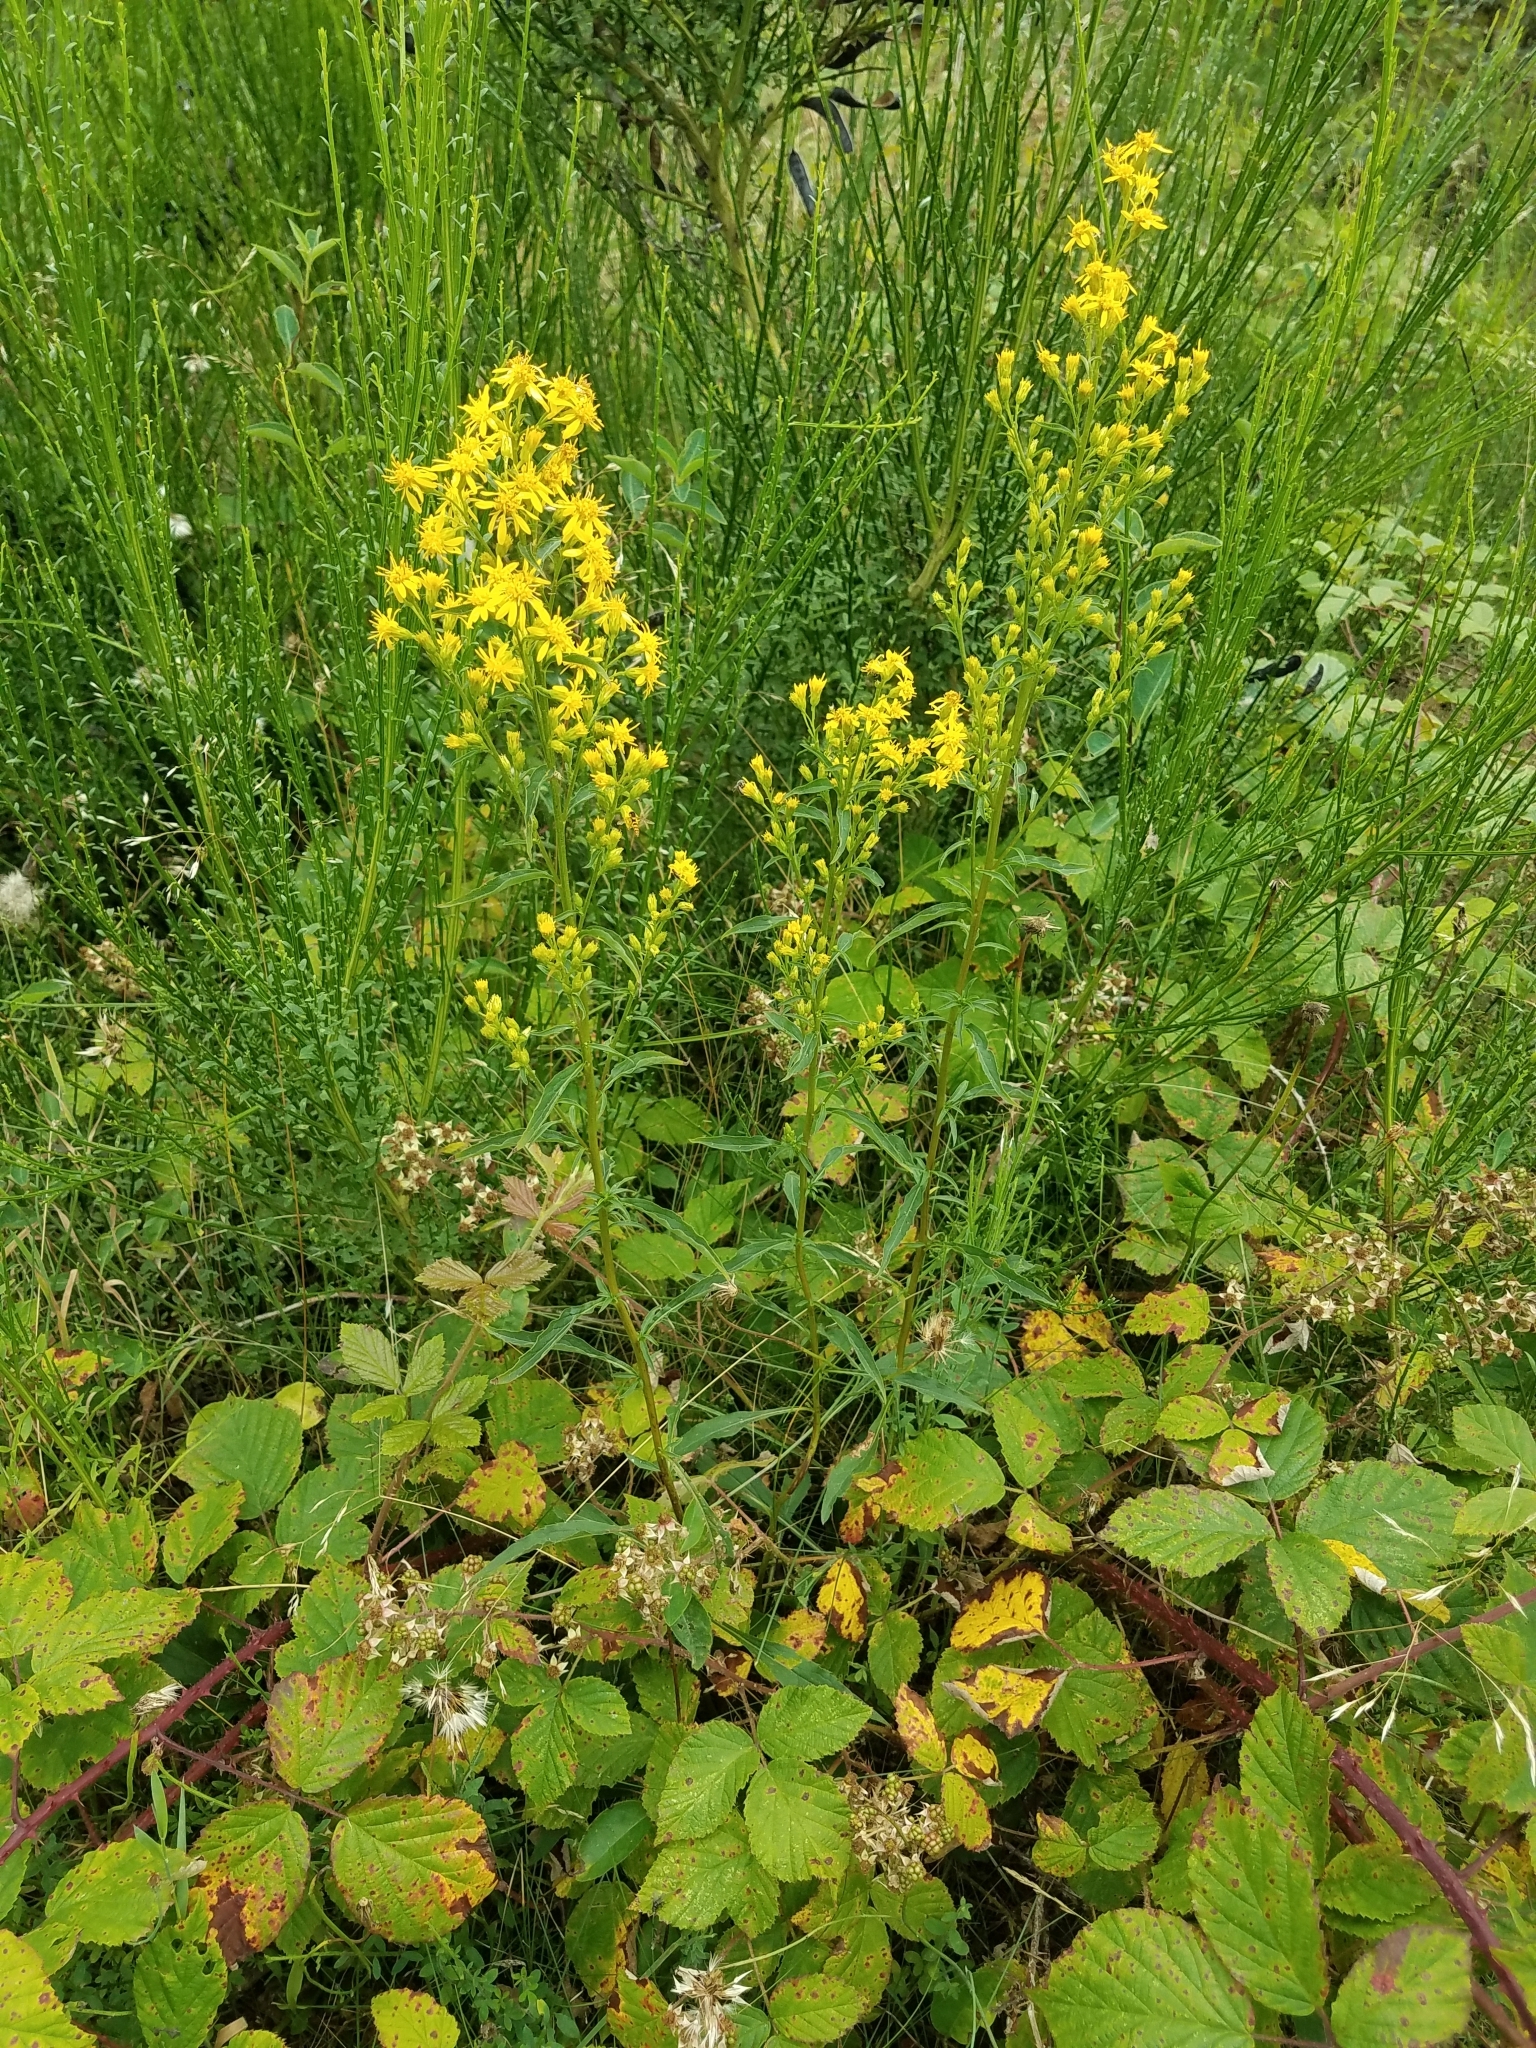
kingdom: Plantae
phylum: Tracheophyta
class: Magnoliopsida
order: Asterales
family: Asteraceae
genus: Solidago
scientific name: Solidago virgaurea
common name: Goldenrod
